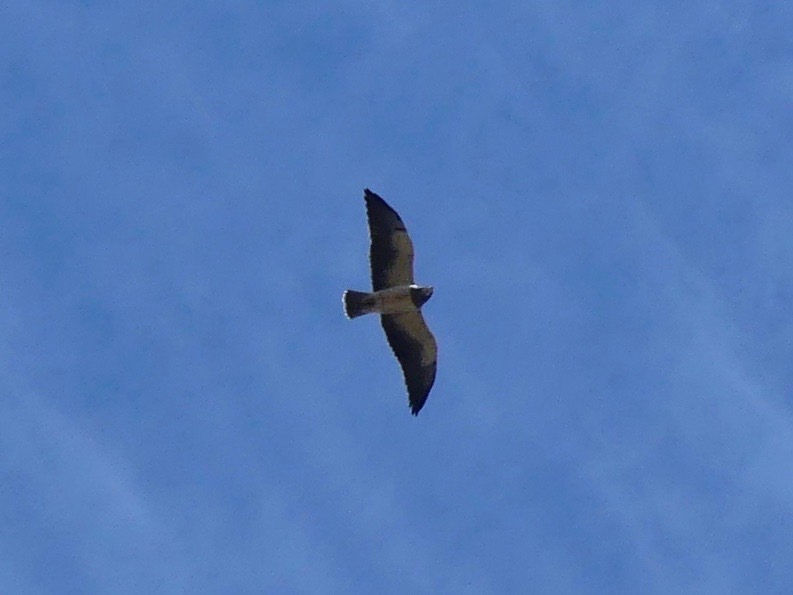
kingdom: Animalia
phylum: Chordata
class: Aves
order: Accipitriformes
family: Accipitridae
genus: Buteo
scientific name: Buteo swainsoni
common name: Swainson's hawk
